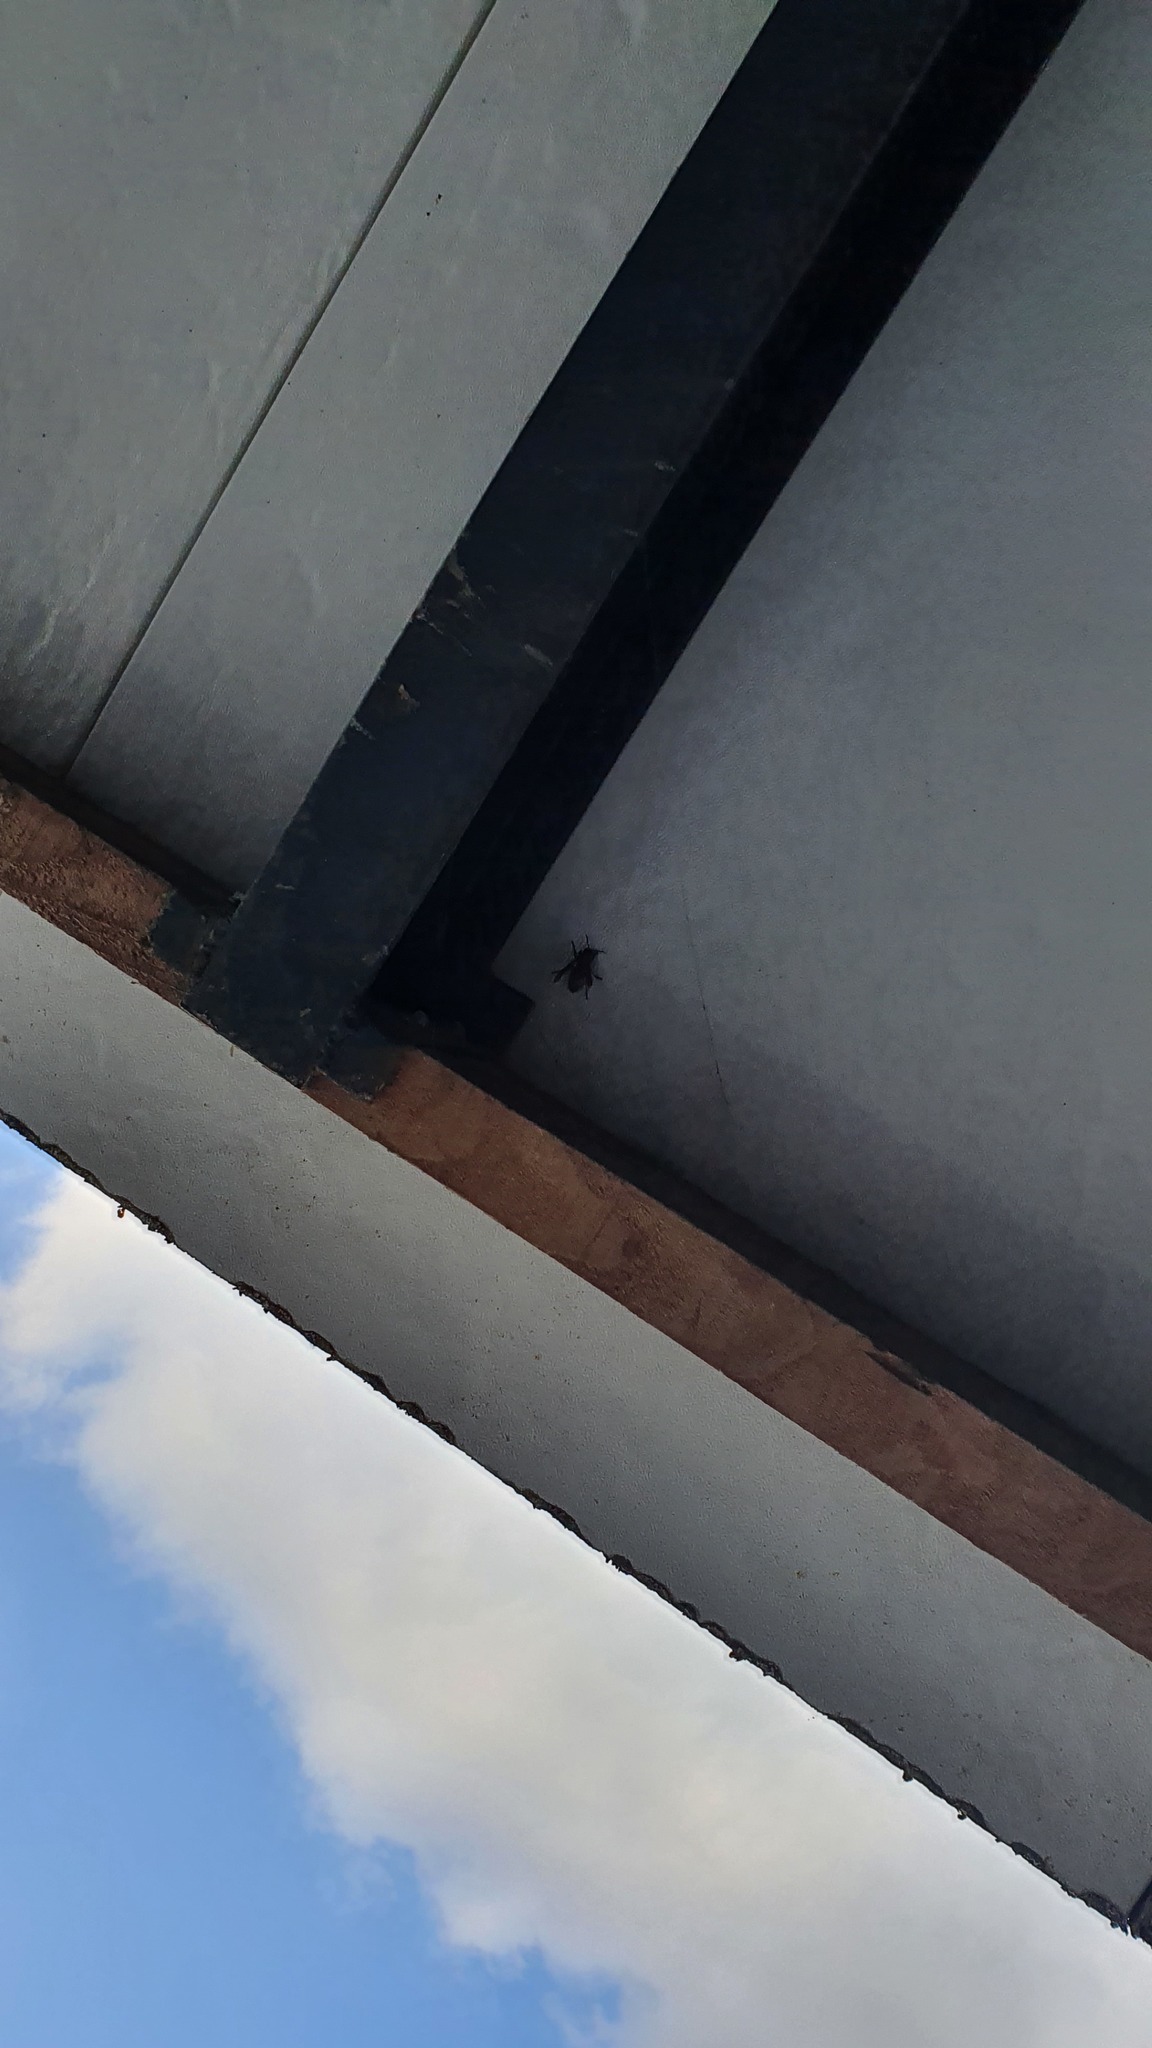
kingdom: Animalia
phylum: Arthropoda
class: Insecta
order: Hymenoptera
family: Vespidae
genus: Vespa
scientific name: Vespa crabro
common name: Hornet
